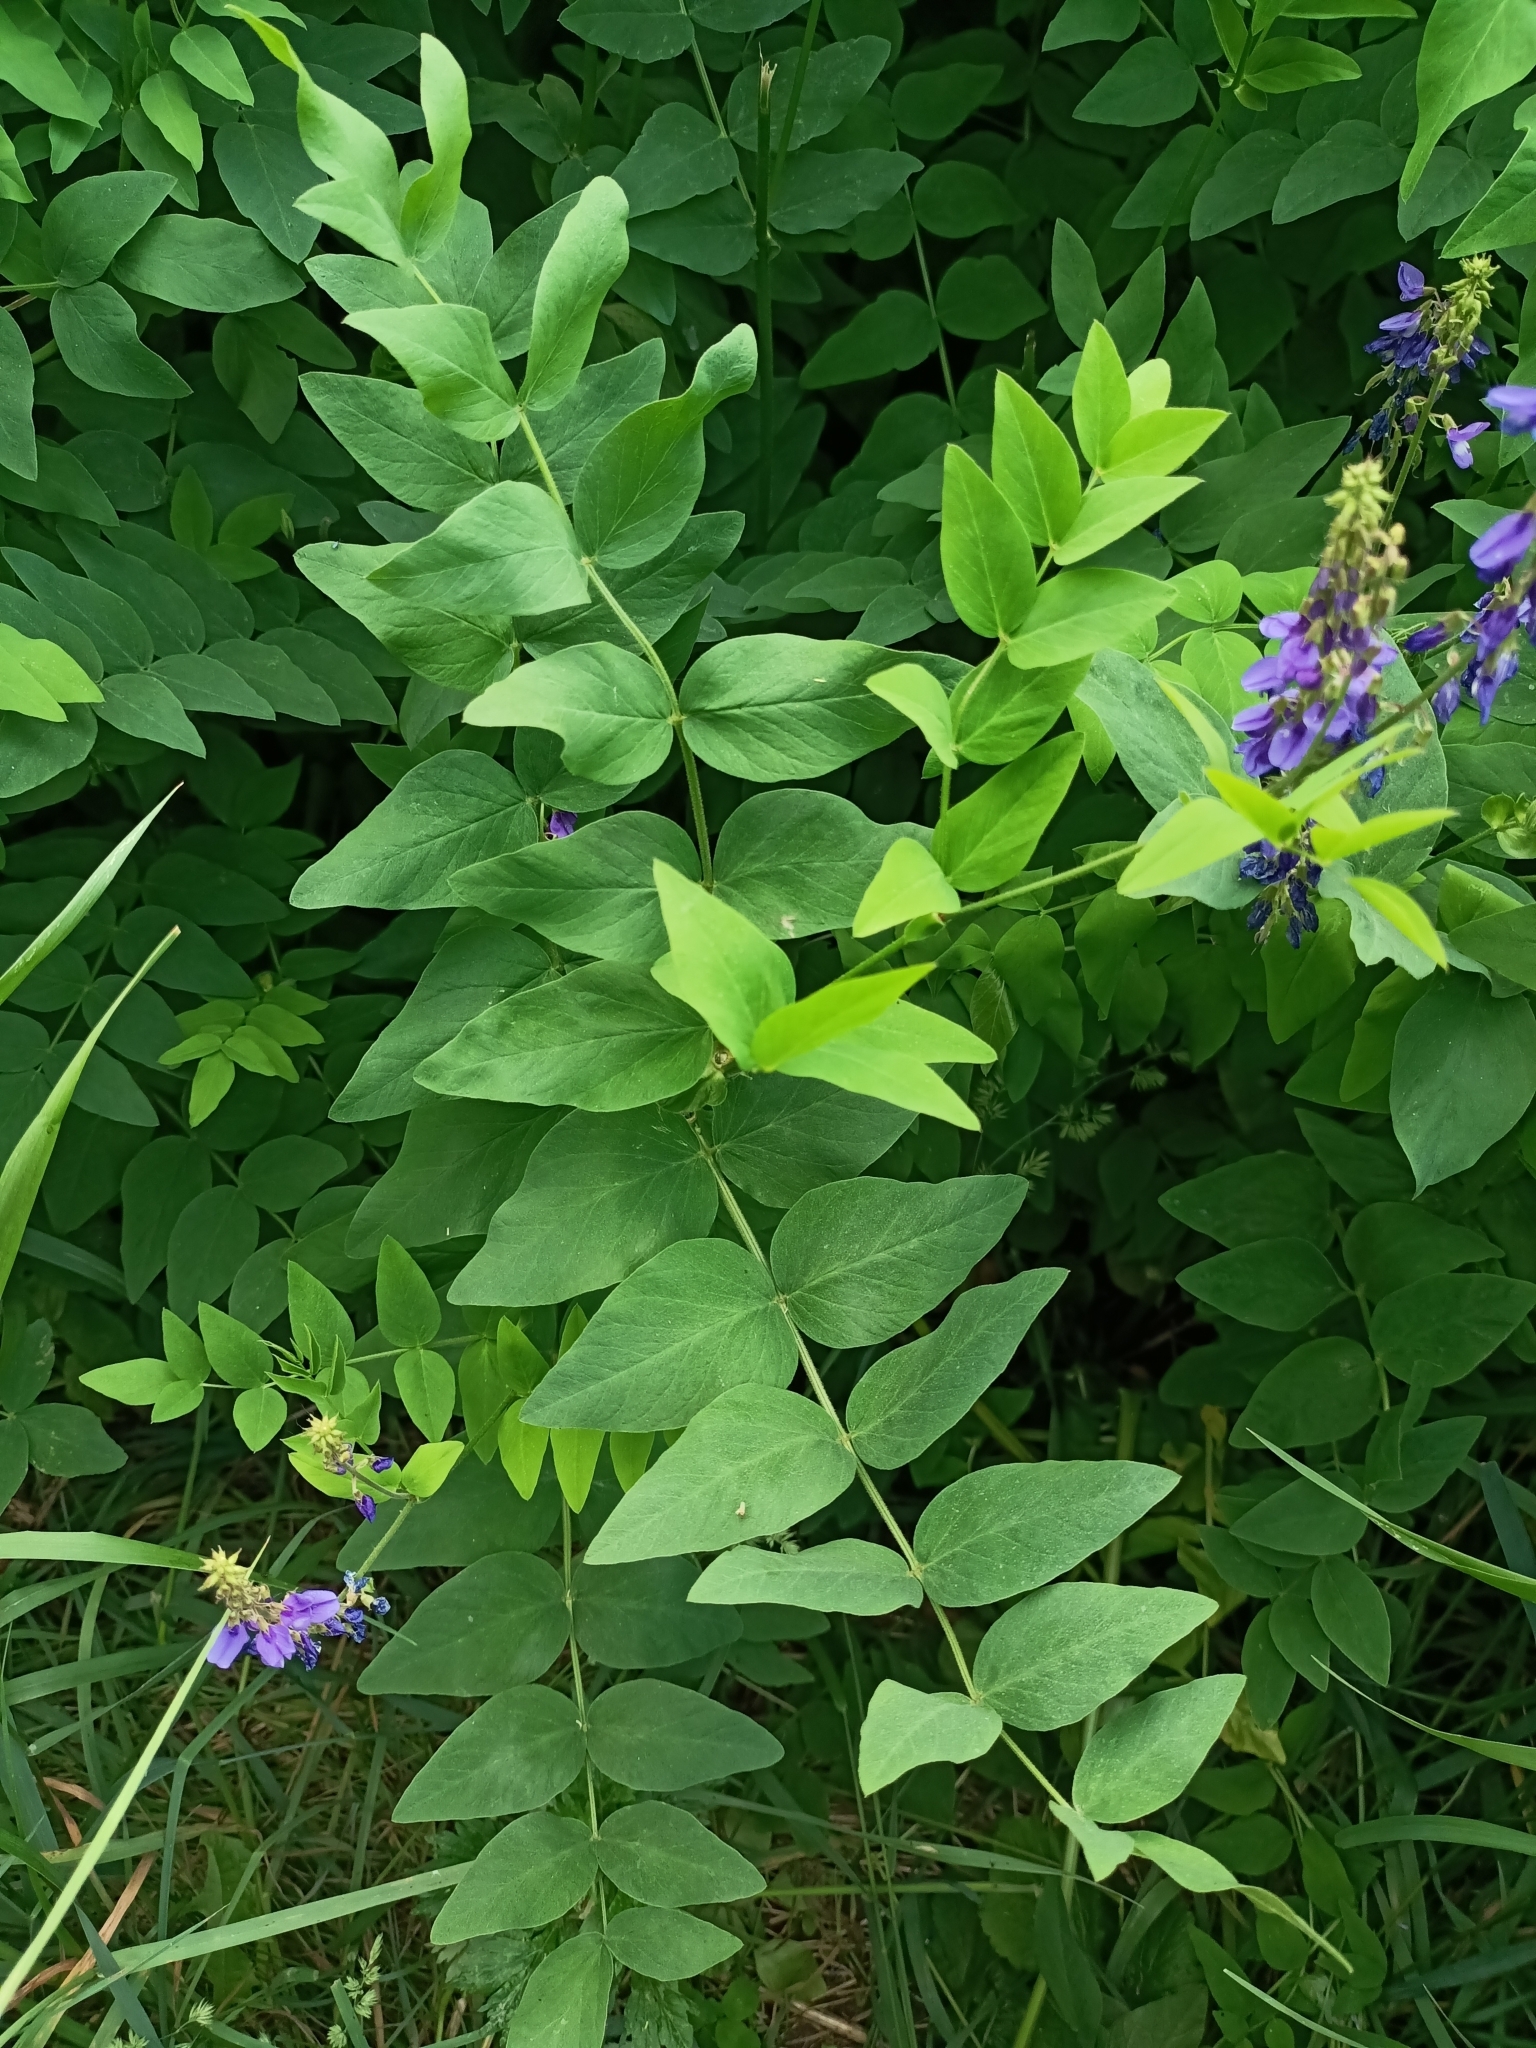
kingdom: Plantae
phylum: Tracheophyta
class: Magnoliopsida
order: Fabales
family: Fabaceae
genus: Galega
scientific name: Galega orientalis
